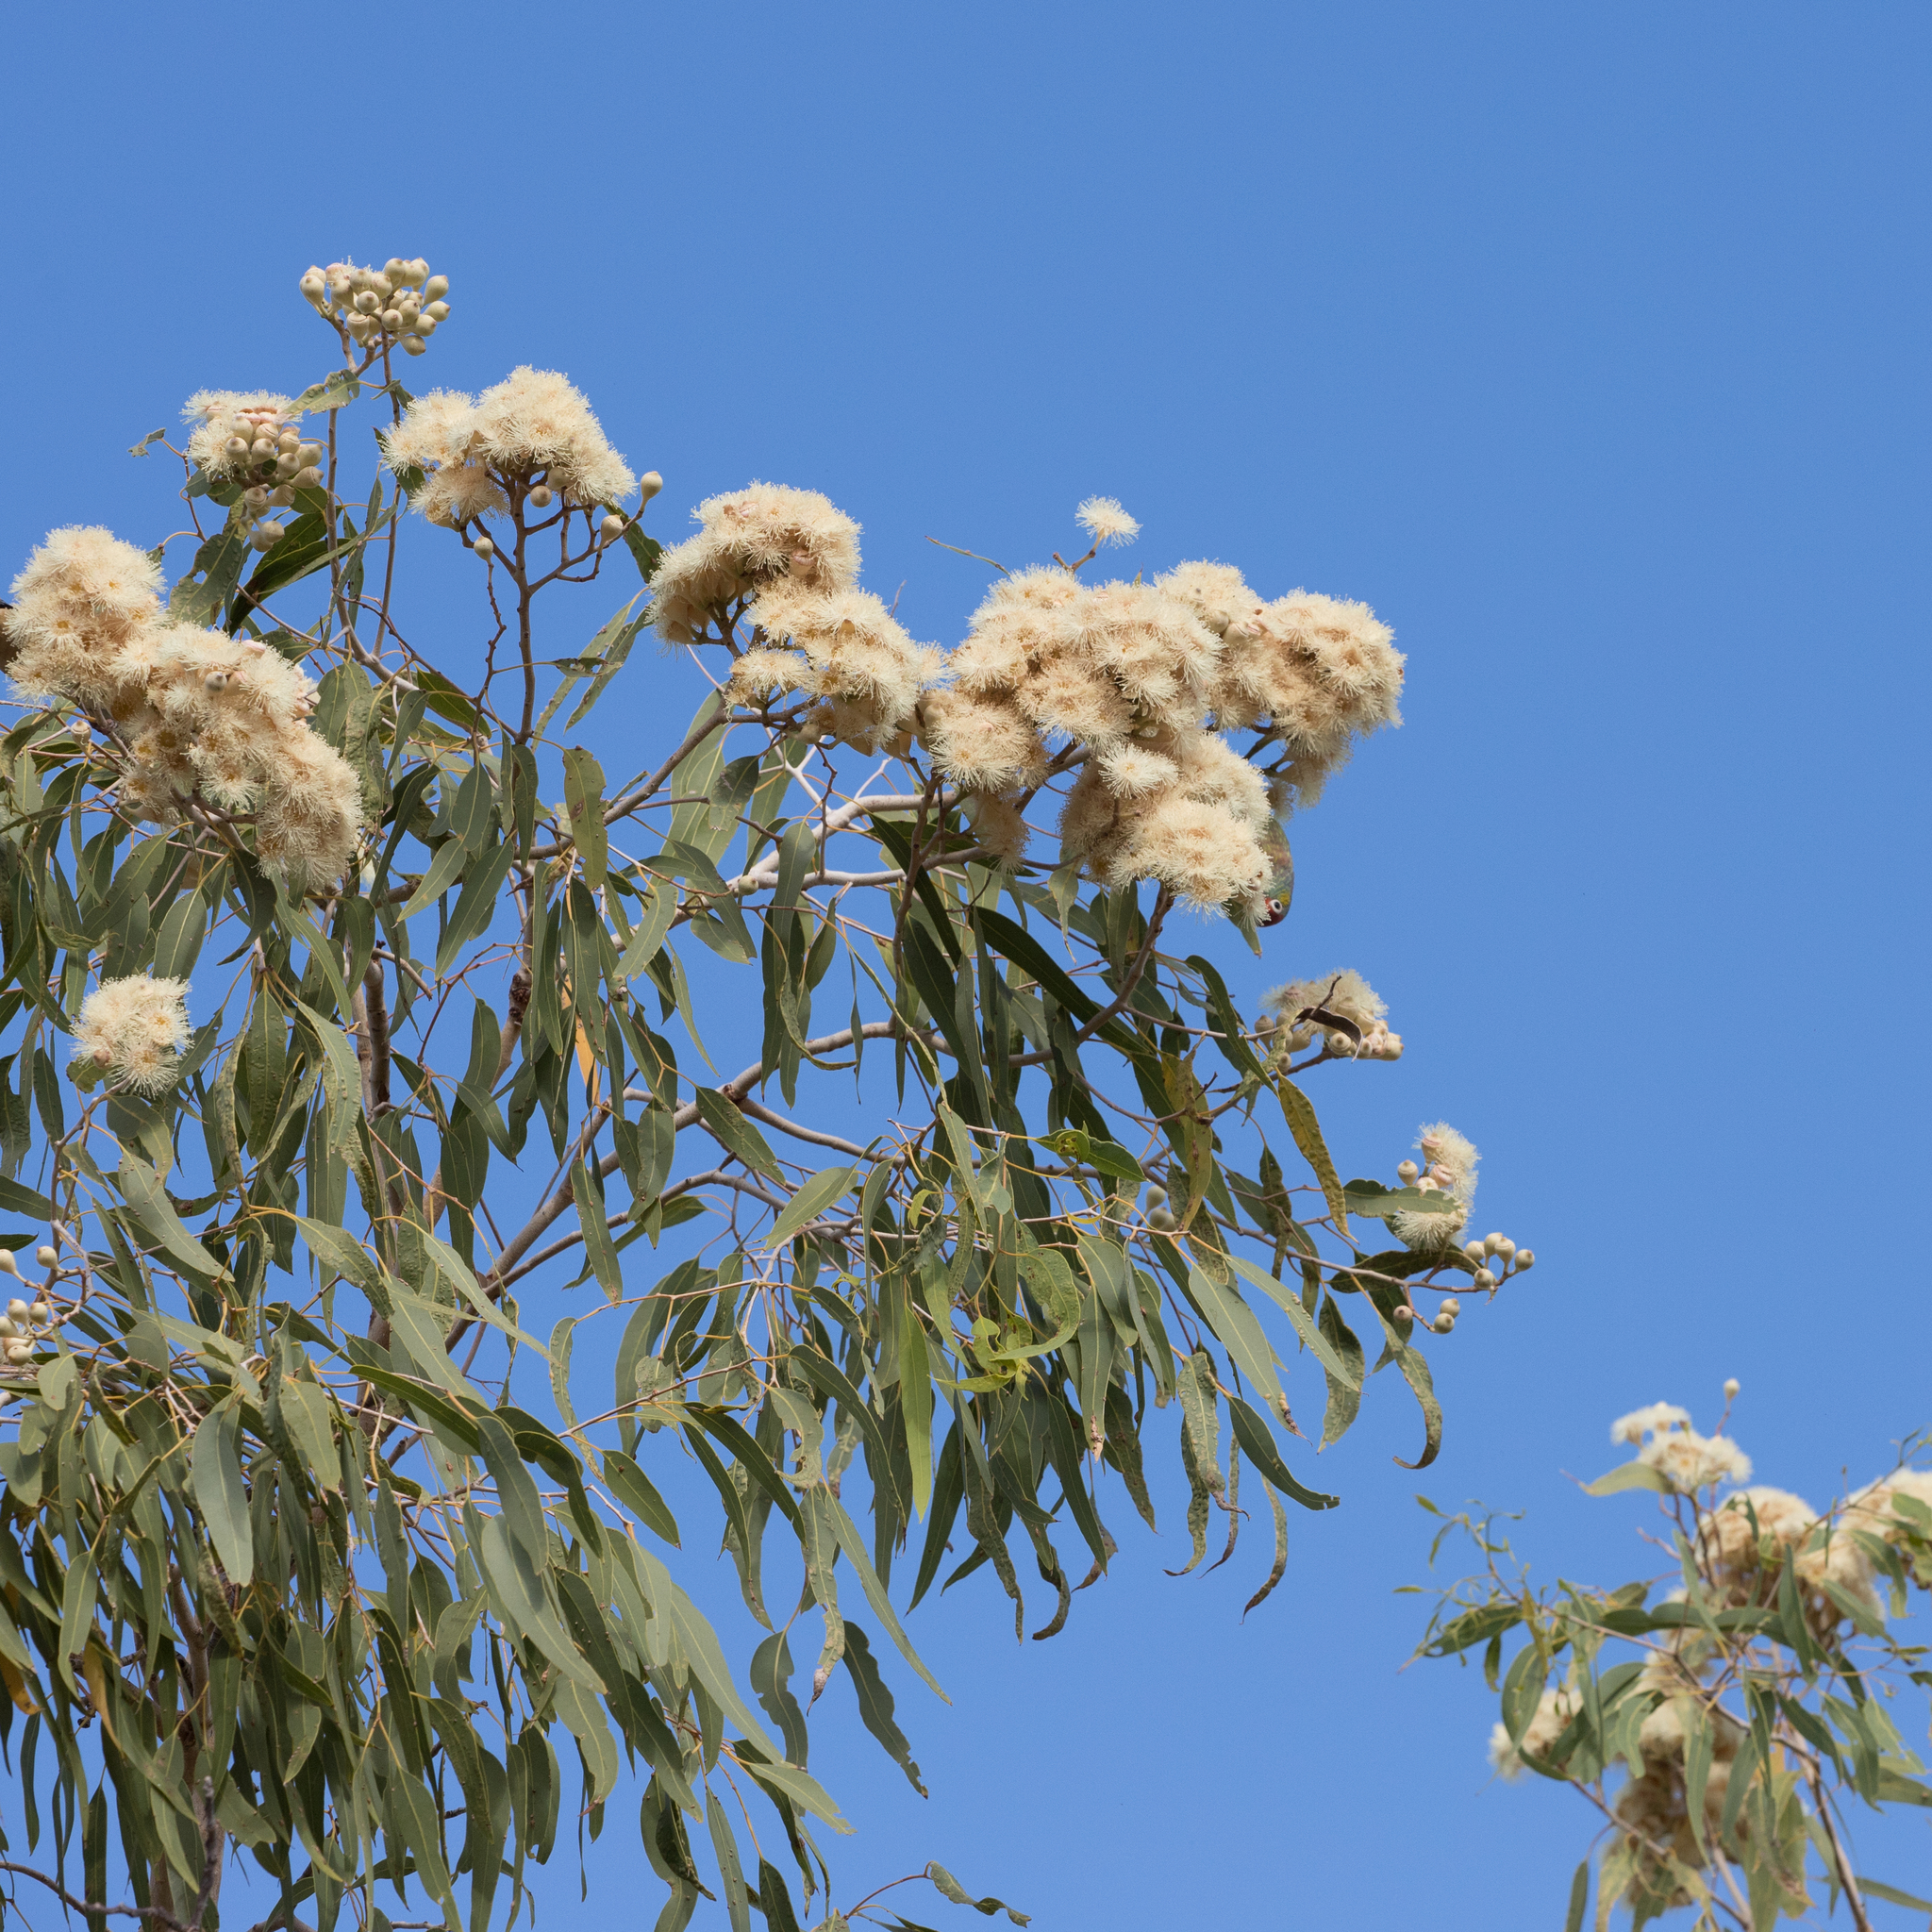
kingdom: Plantae
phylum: Tracheophyta
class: Magnoliopsida
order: Myrtales
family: Myrtaceae
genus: Corymbia
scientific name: Corymbia terminalis
